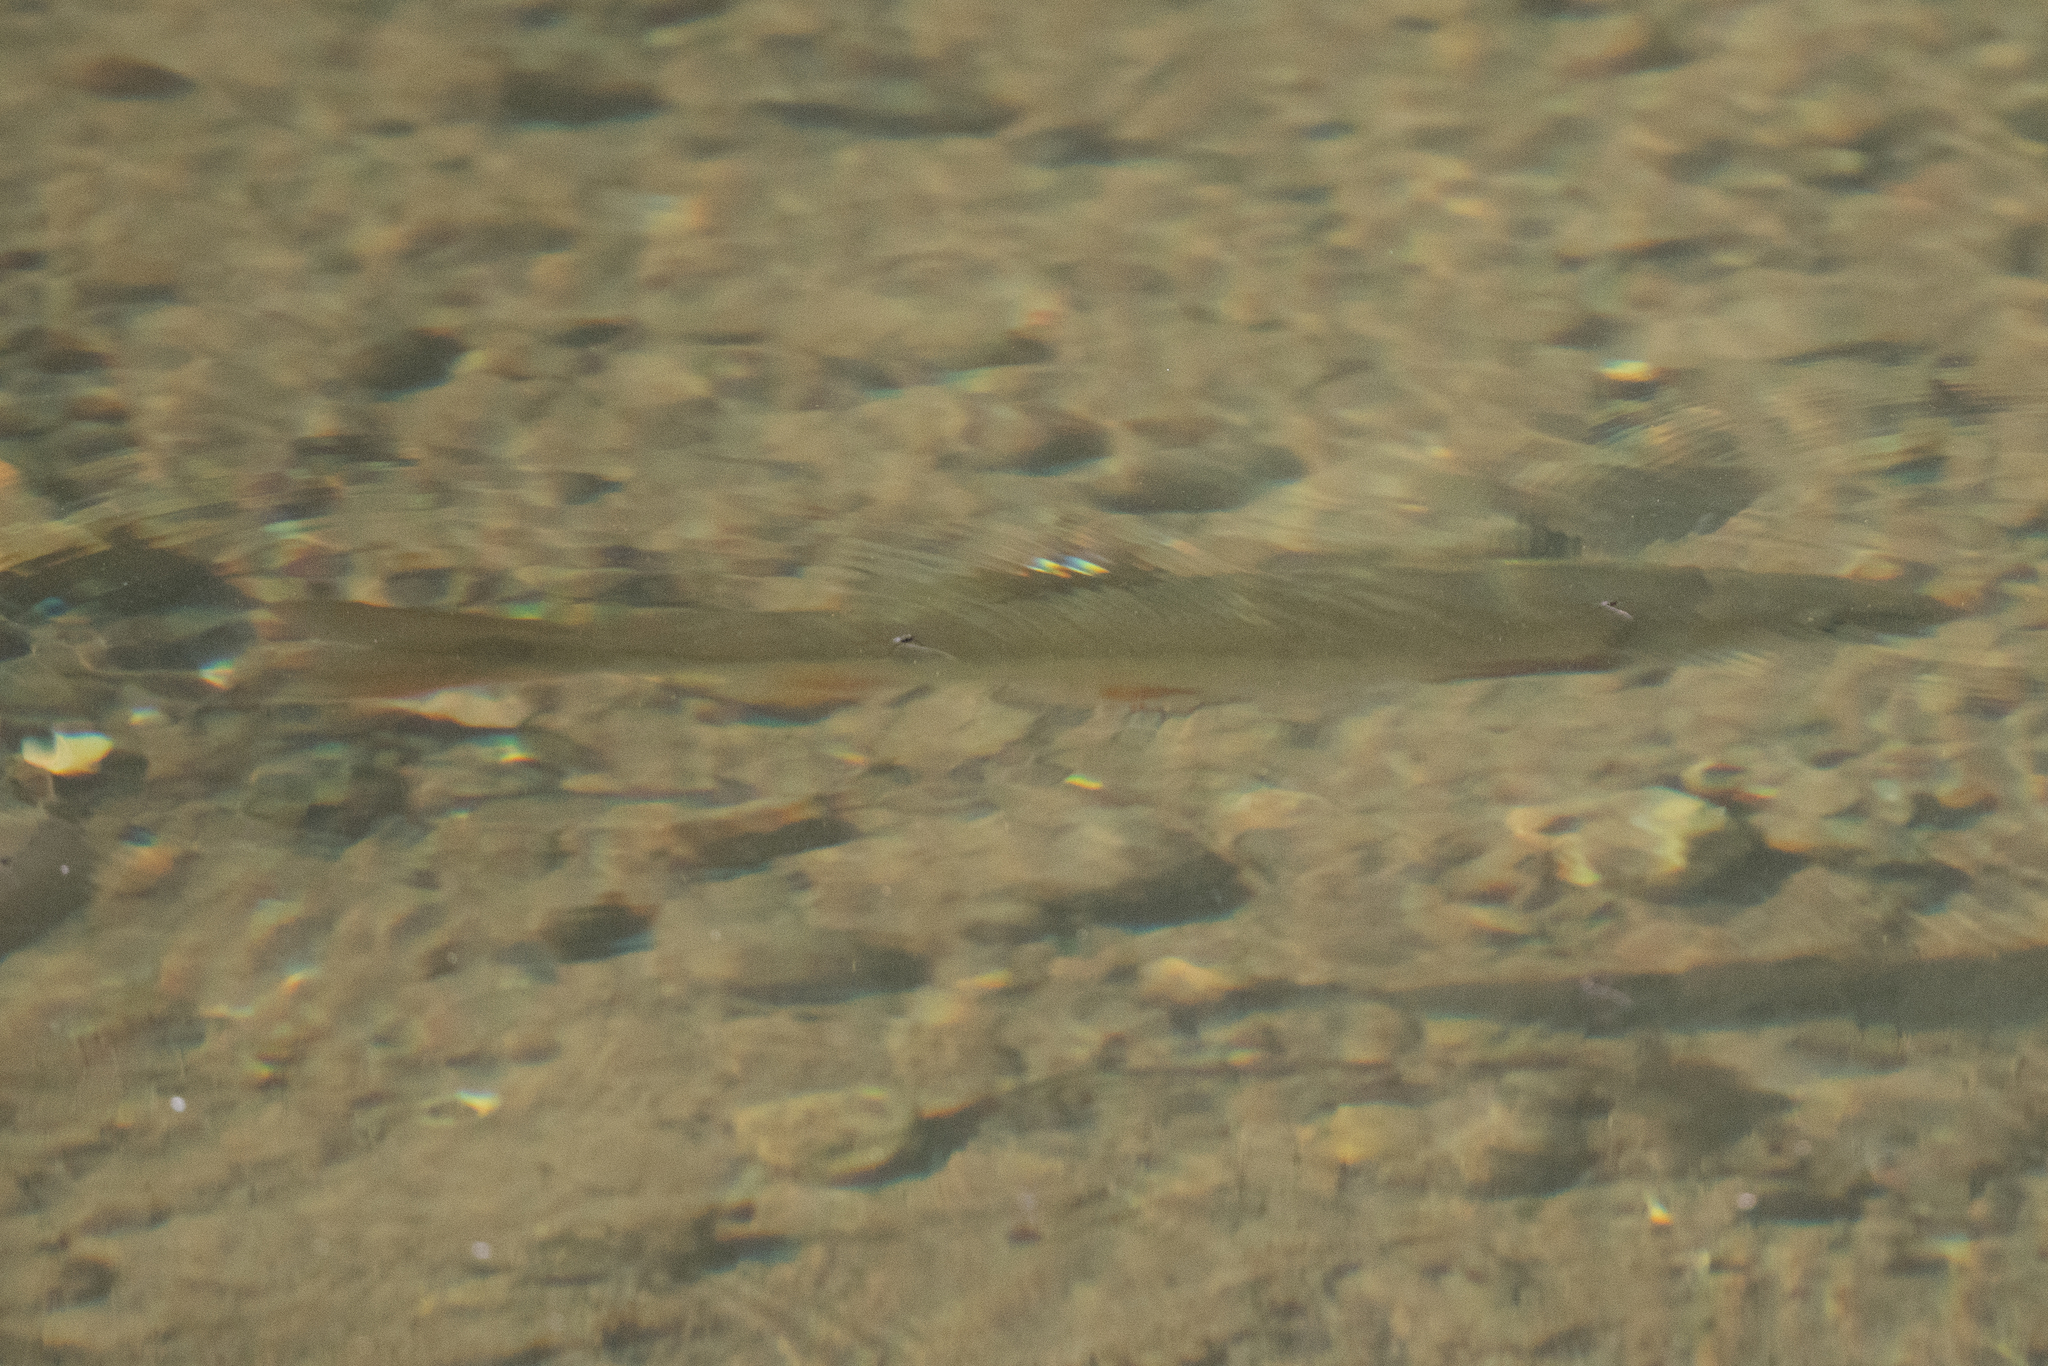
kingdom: Animalia
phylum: Chordata
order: Cypriniformes
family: Cyprinidae
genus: Ptychocheilus
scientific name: Ptychocheilus grandis
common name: Sacramento pikeminnow
